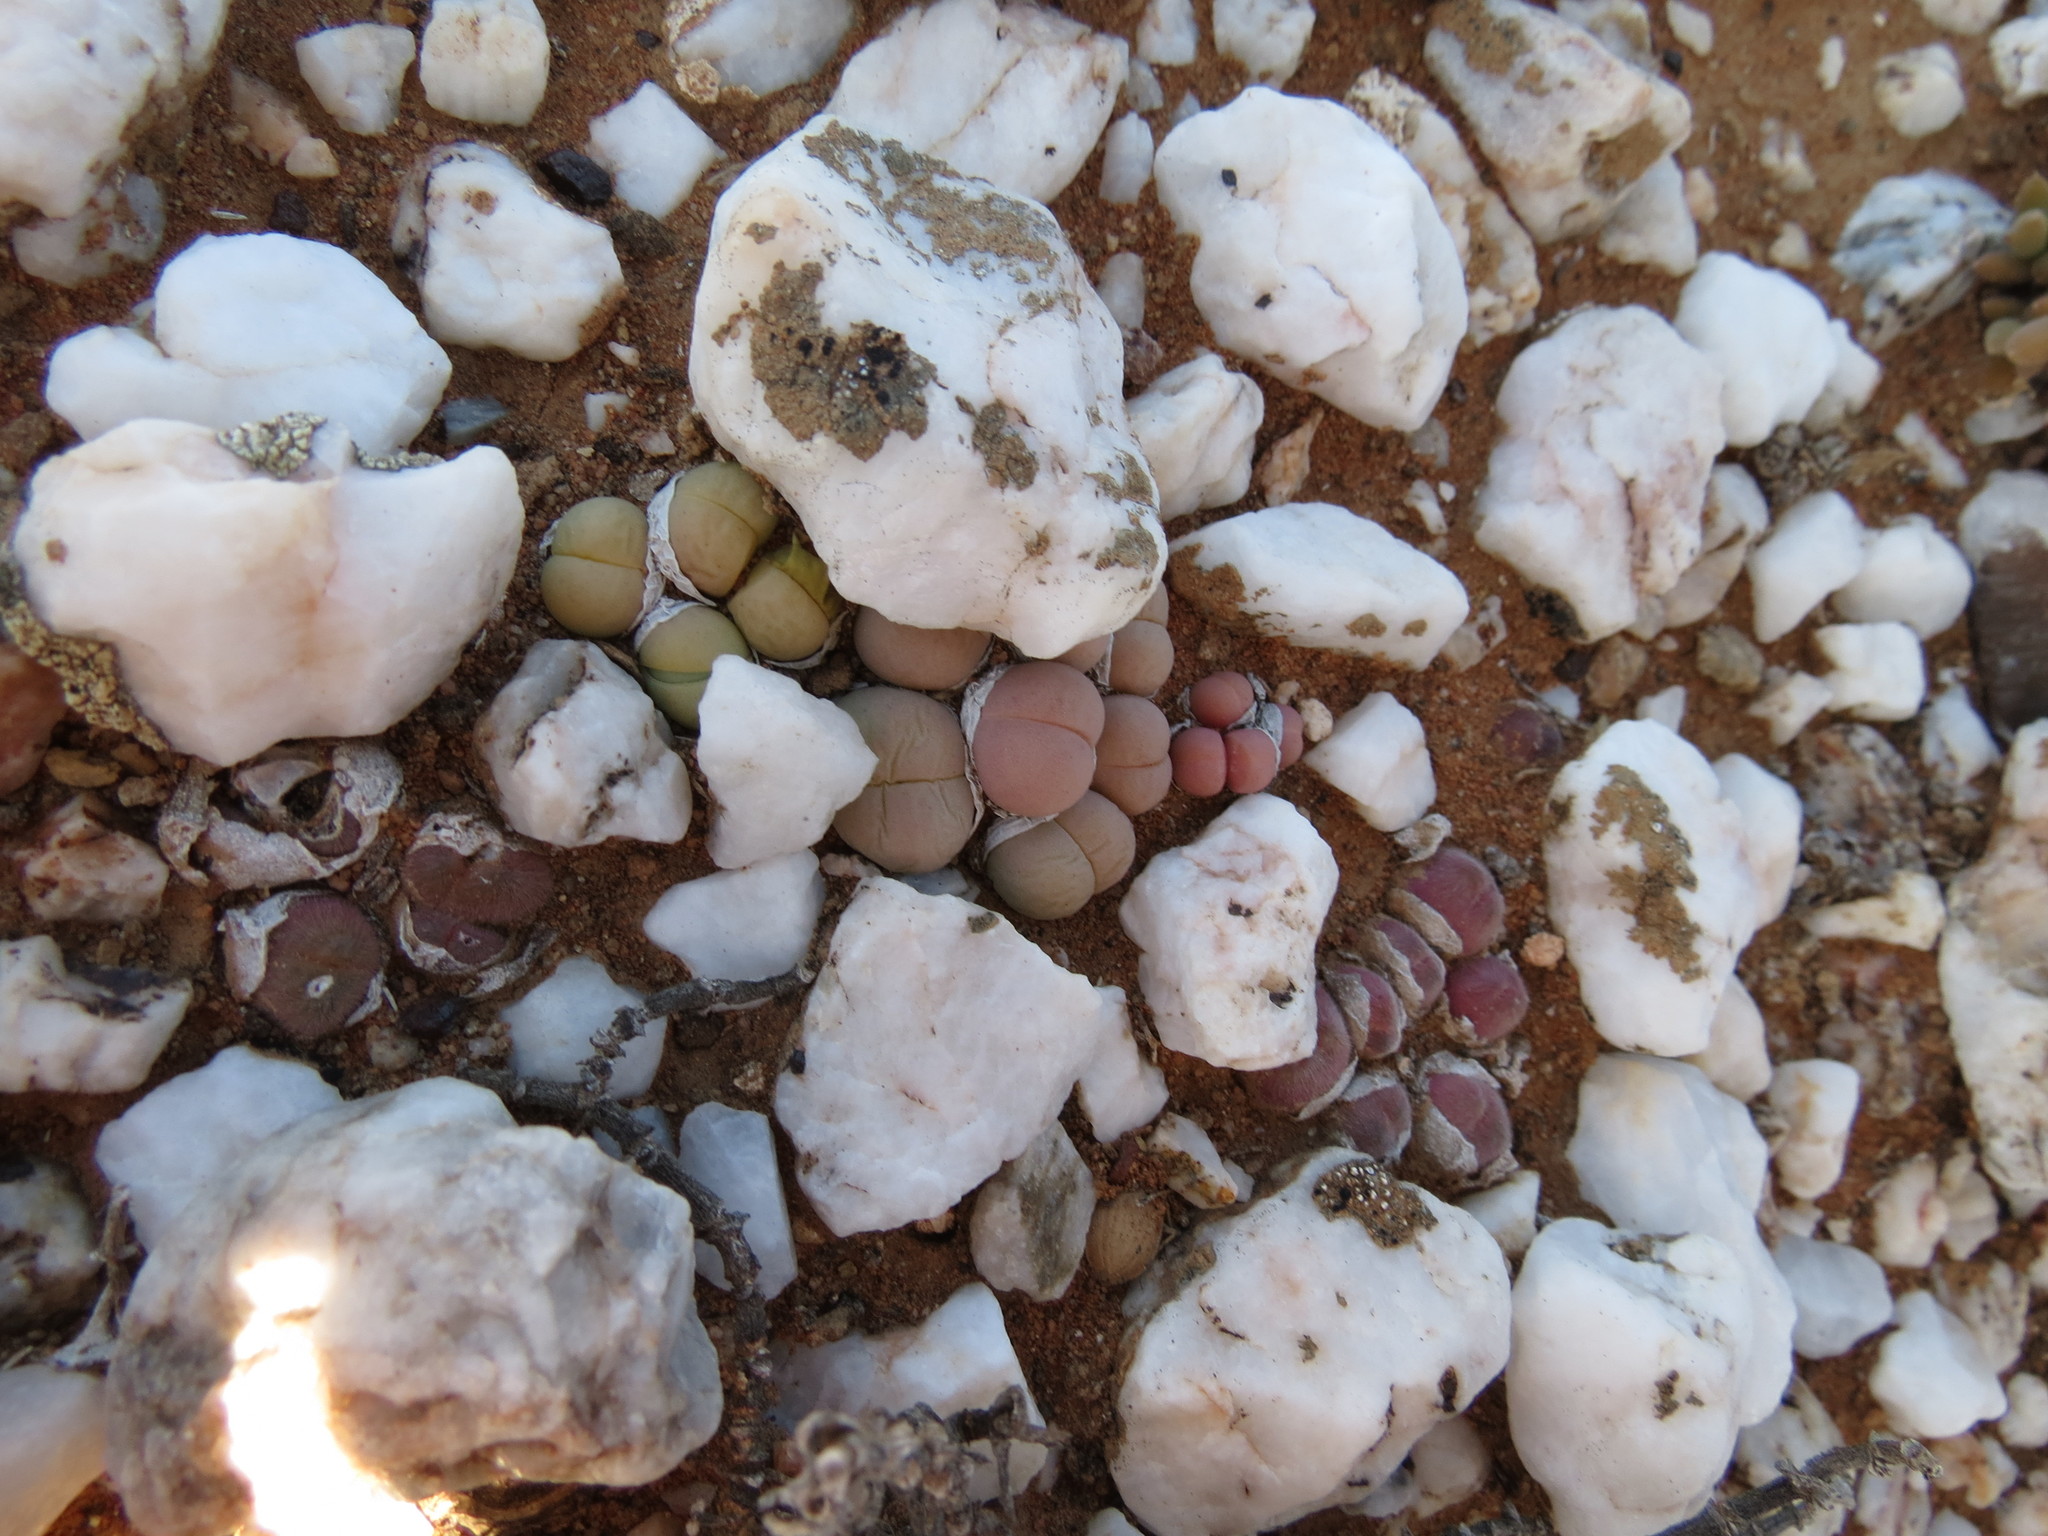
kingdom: Plantae
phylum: Tracheophyta
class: Magnoliopsida
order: Caryophyllales
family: Aizoaceae
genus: Gibbaeum
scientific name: Gibbaeum heathii
